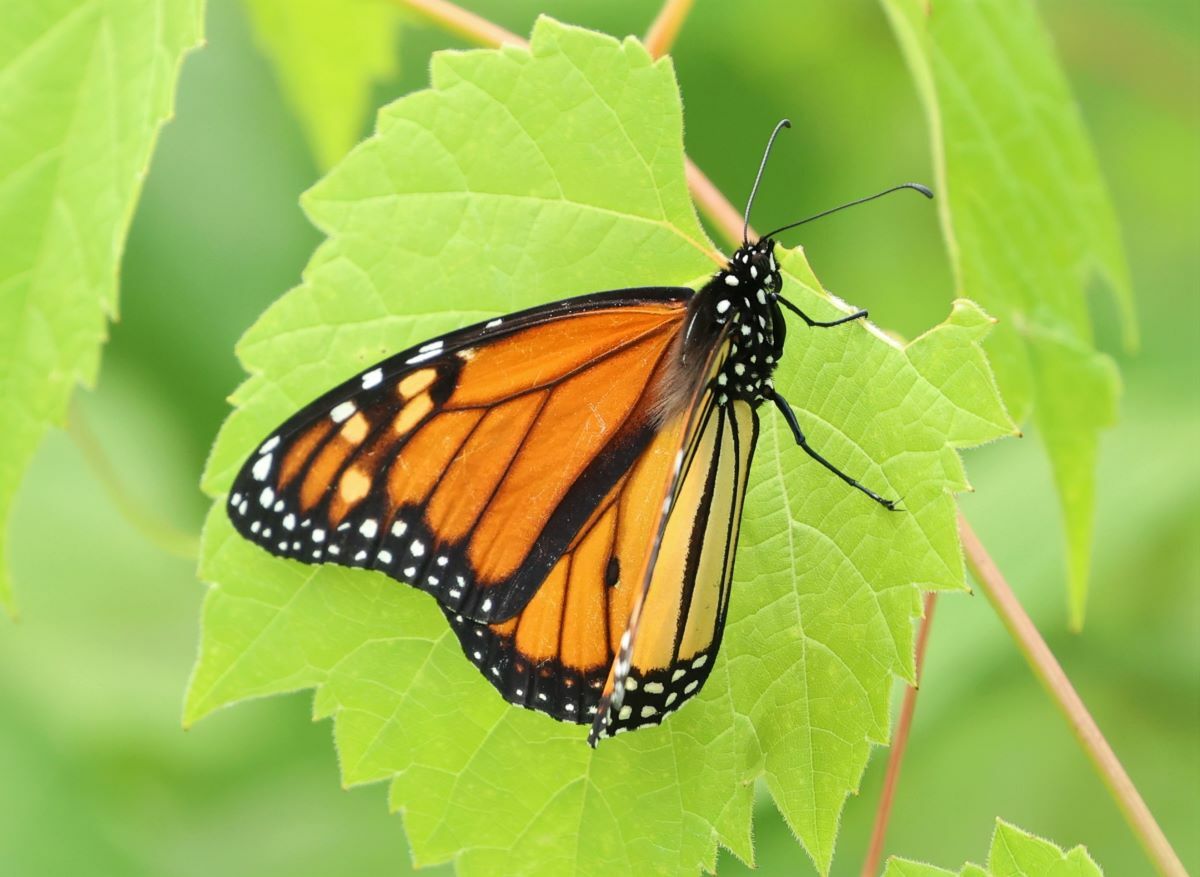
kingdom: Animalia
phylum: Arthropoda
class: Insecta
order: Lepidoptera
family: Nymphalidae
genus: Danaus
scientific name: Danaus plexippus
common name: Monarch
